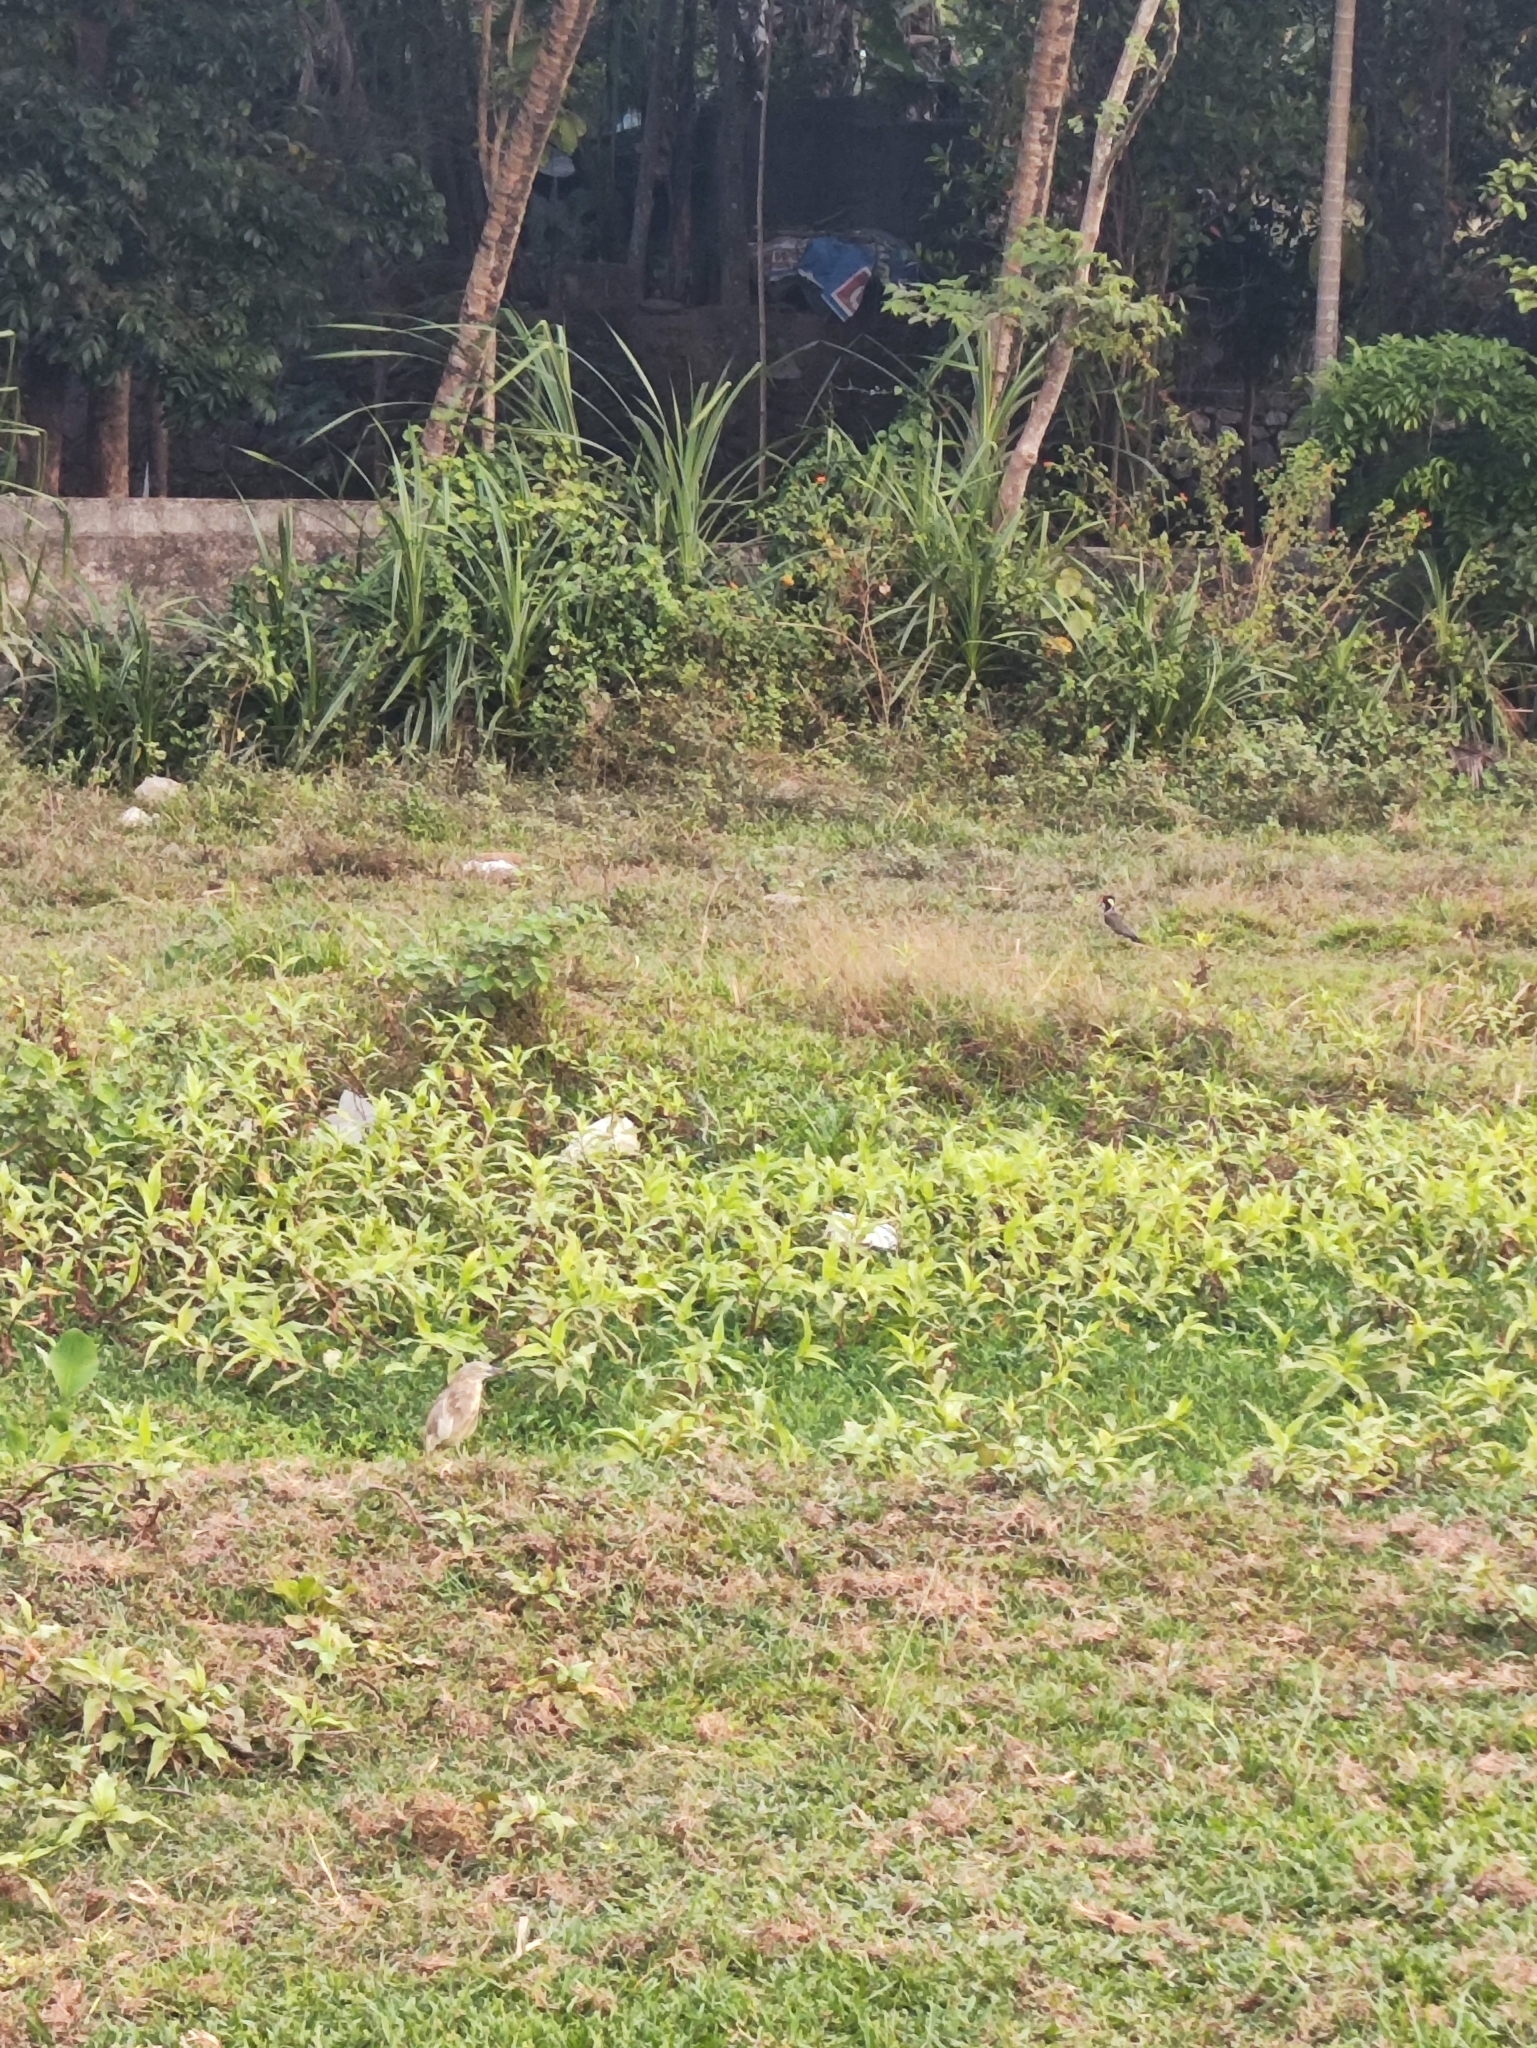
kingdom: Animalia
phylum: Chordata
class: Aves
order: Pelecaniformes
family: Ardeidae
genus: Ardeola
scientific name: Ardeola grayii
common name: Indian pond heron
